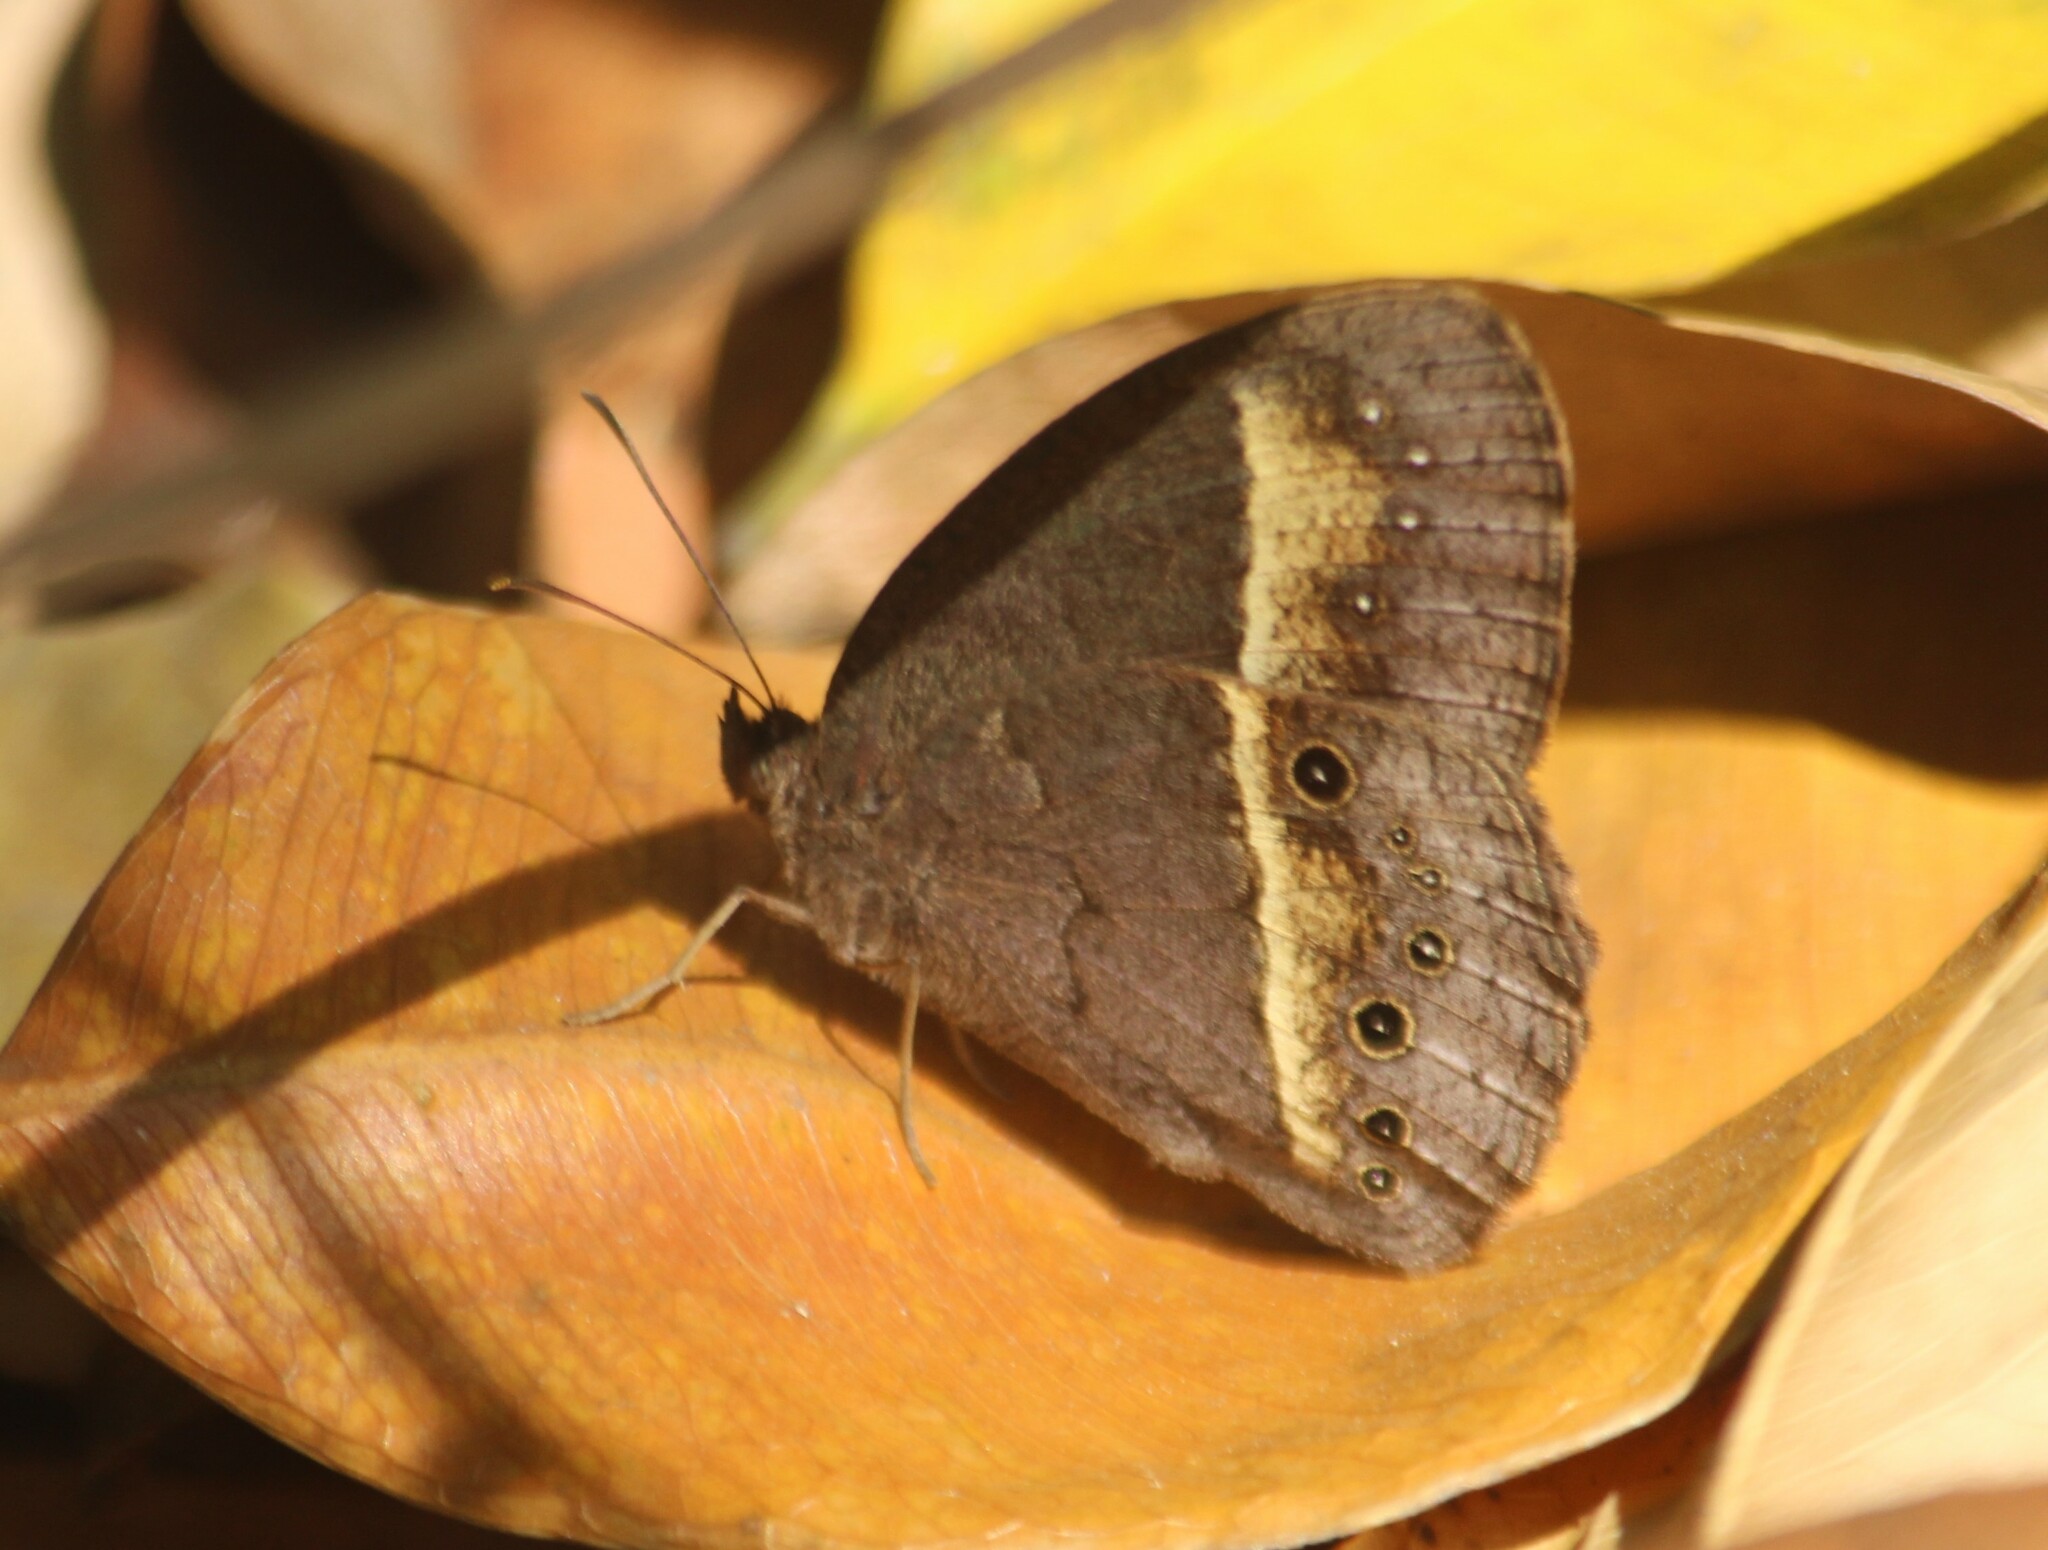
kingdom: Animalia
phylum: Arthropoda
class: Insecta
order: Lepidoptera
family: Nymphalidae
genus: Mycalesis
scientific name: Mycalesis perseus
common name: Dingy bushbrown
